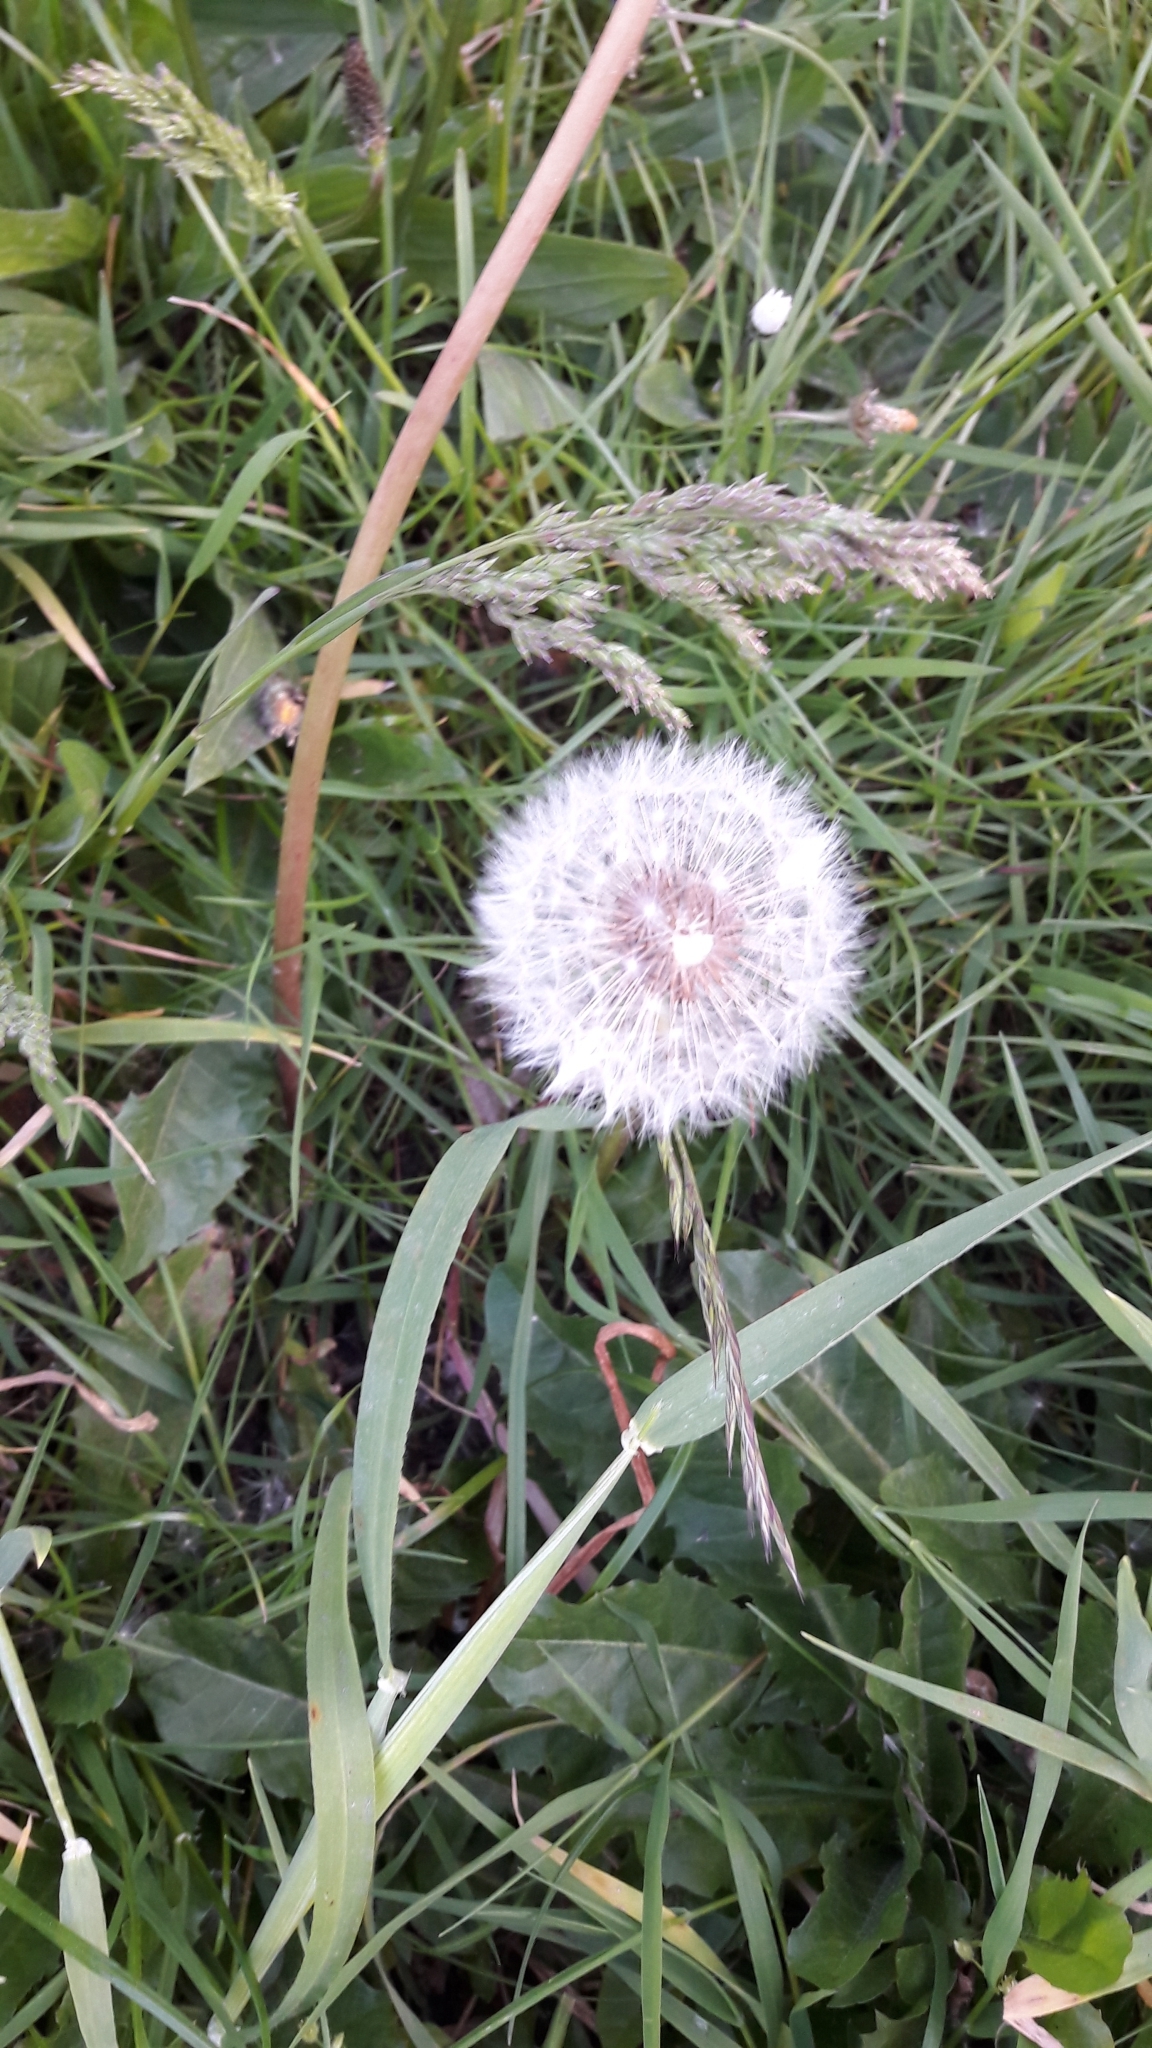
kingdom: Plantae
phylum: Tracheophyta
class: Magnoliopsida
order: Asterales
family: Asteraceae
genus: Taraxacum
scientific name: Taraxacum officinale
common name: Common dandelion
